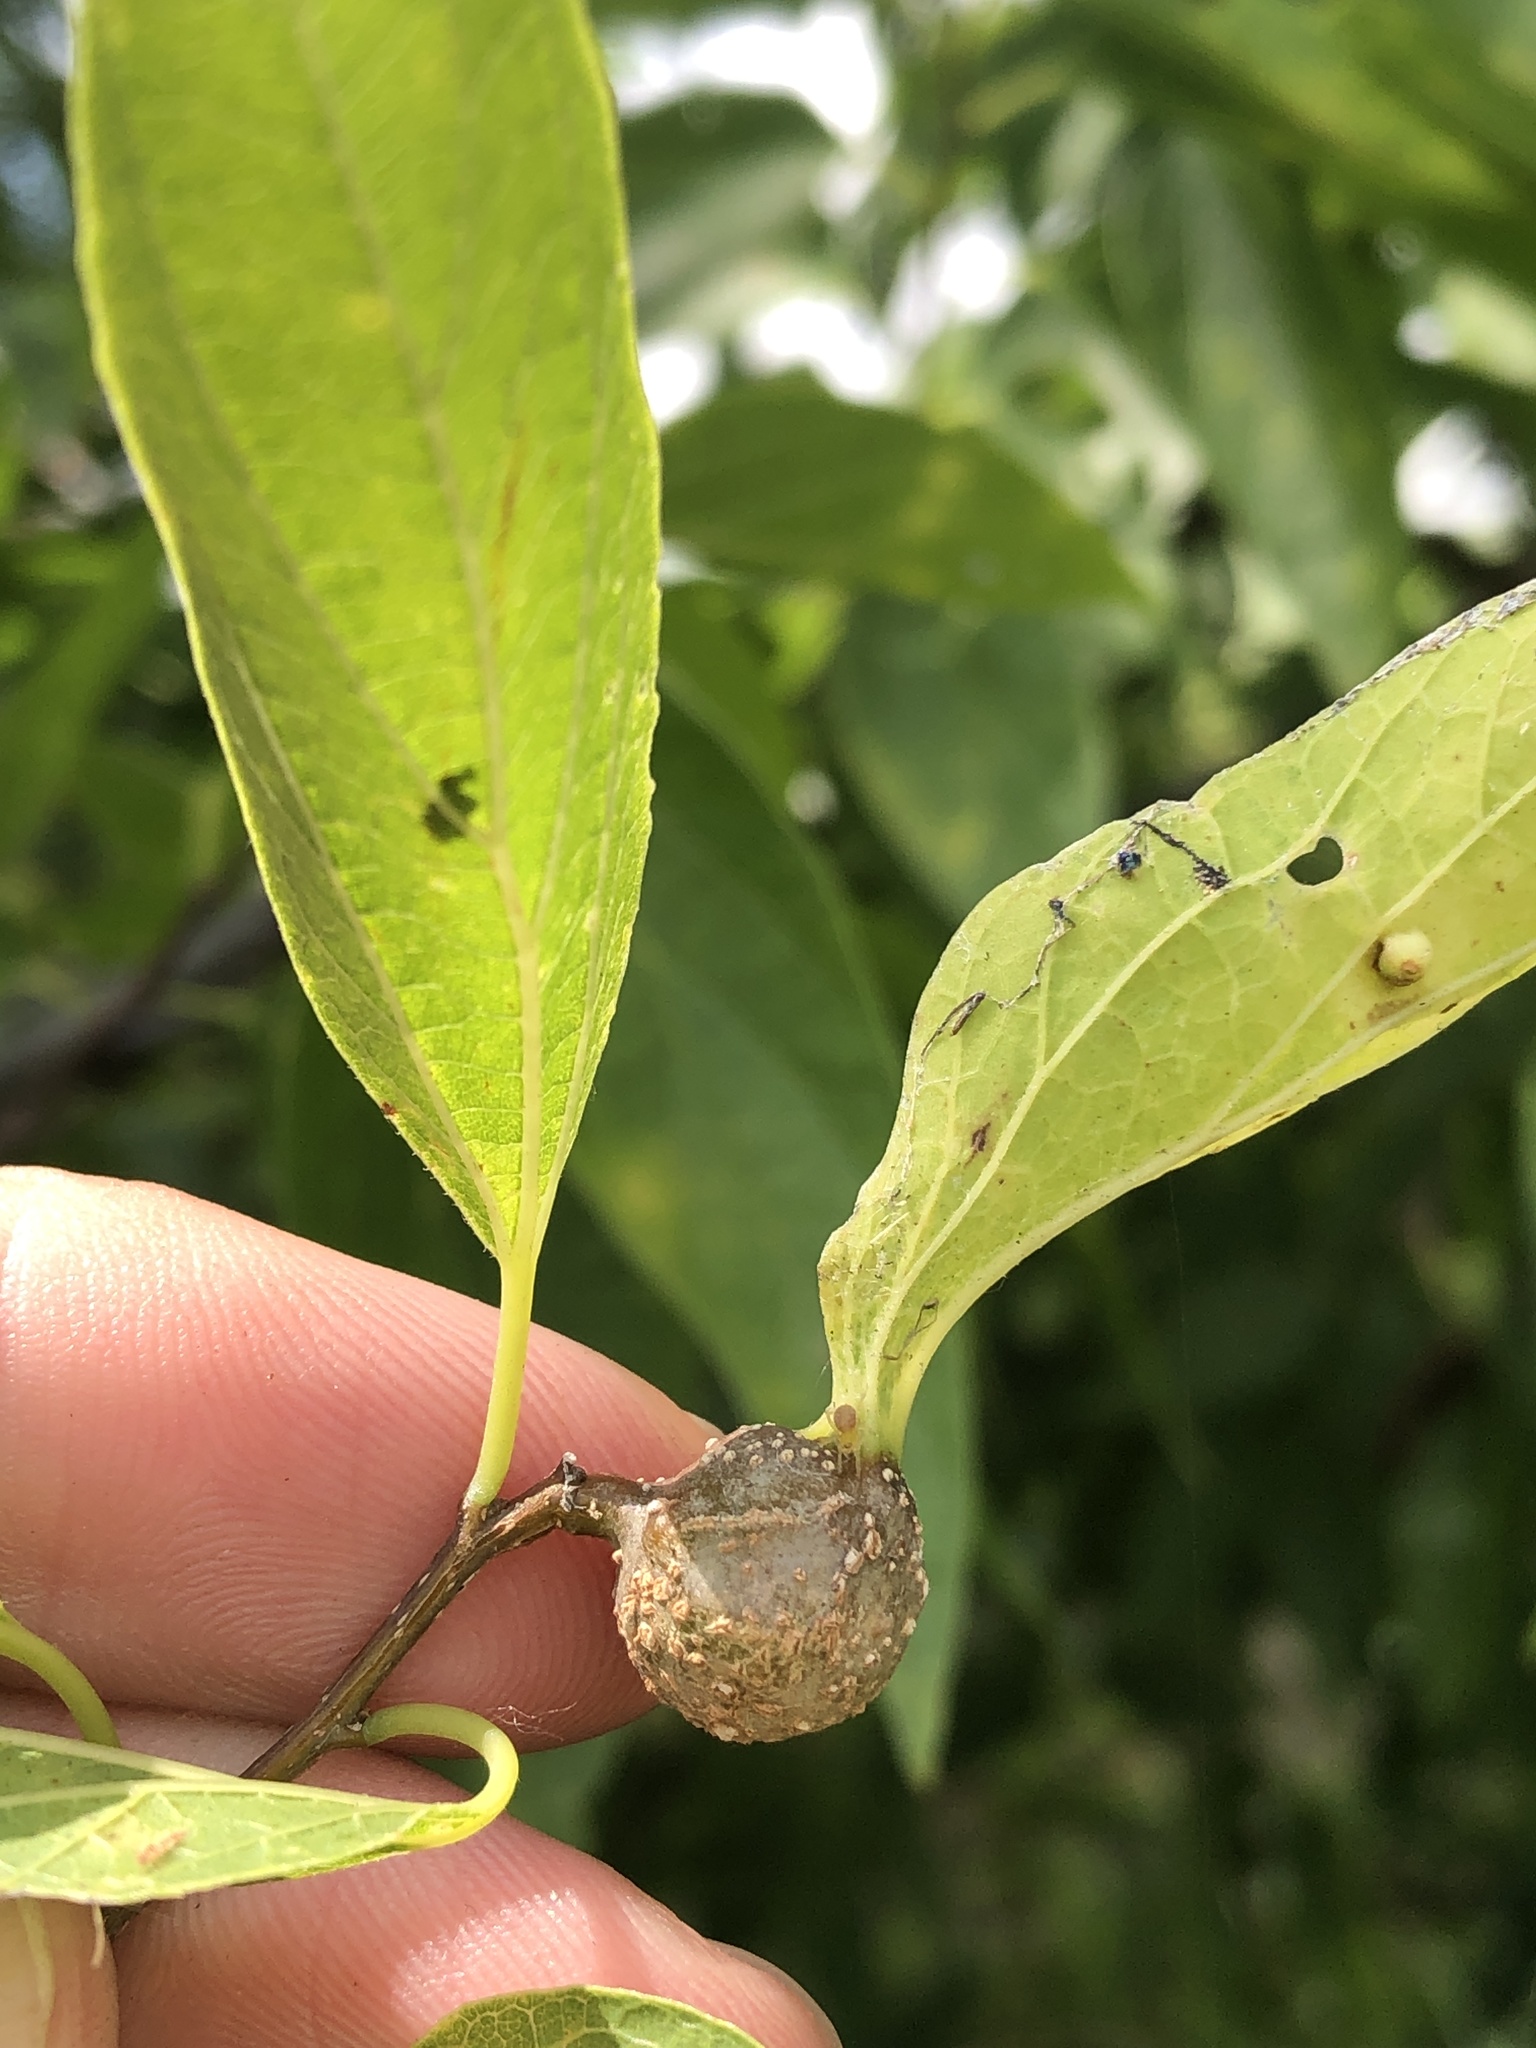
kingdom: Animalia
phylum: Arthropoda
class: Insecta
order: Hemiptera
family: Aphalaridae
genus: Pachypsylla
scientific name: Pachypsylla venusta
